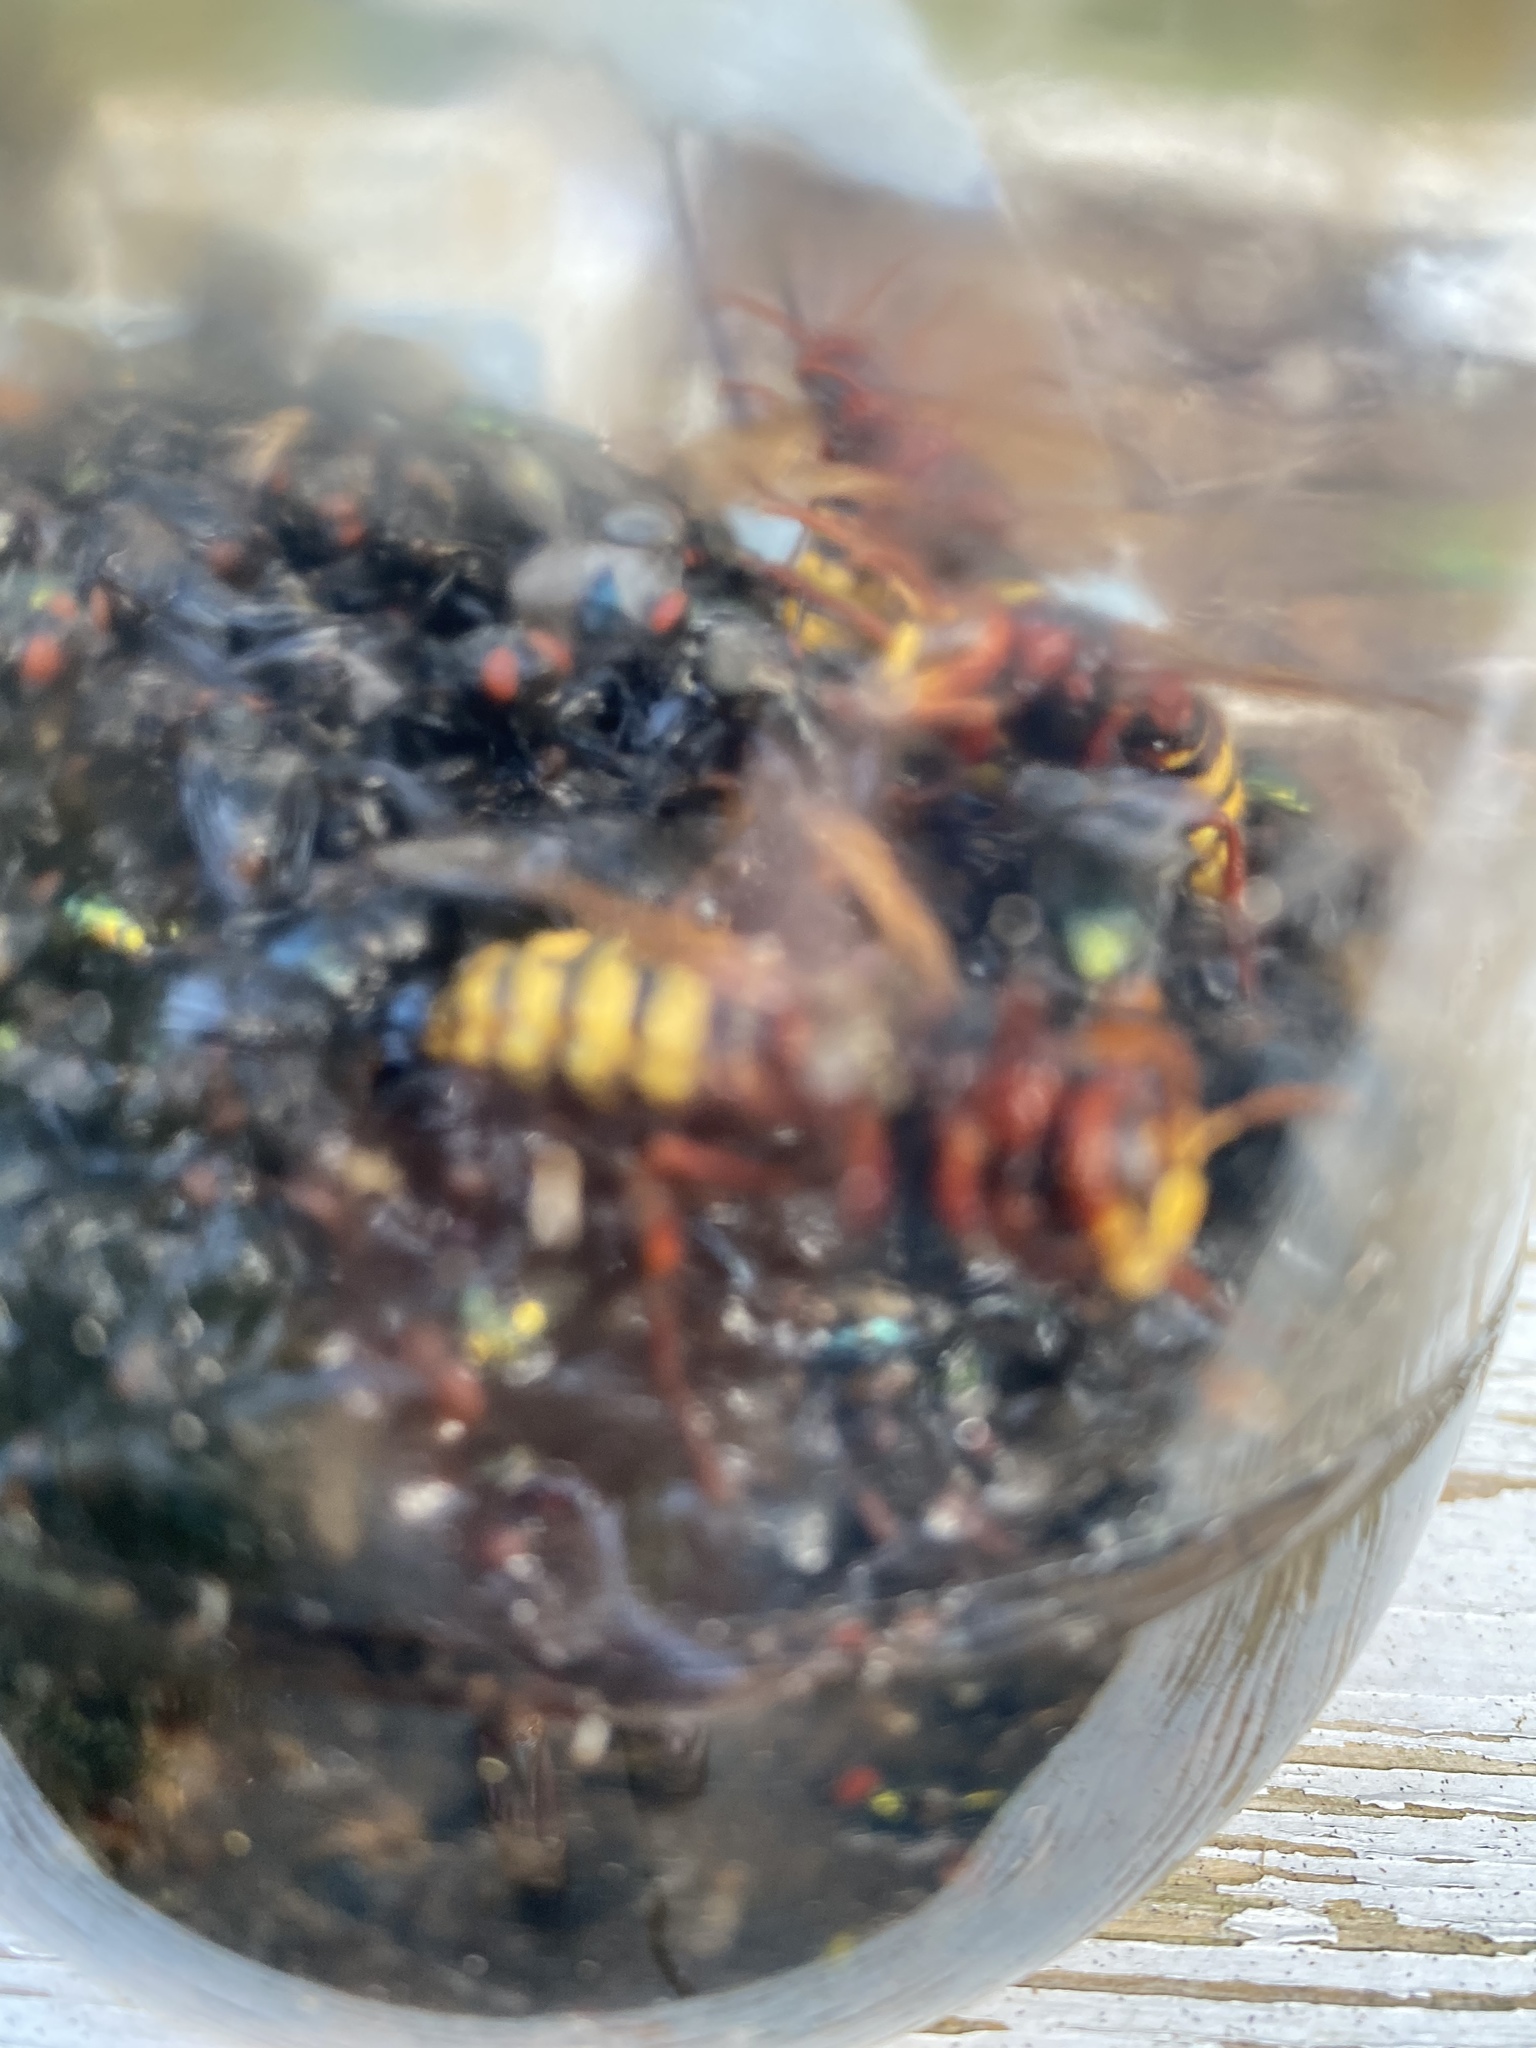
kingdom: Animalia
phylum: Arthropoda
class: Insecta
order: Hymenoptera
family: Vespidae
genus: Vespa
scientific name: Vespa crabro
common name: Hornet
